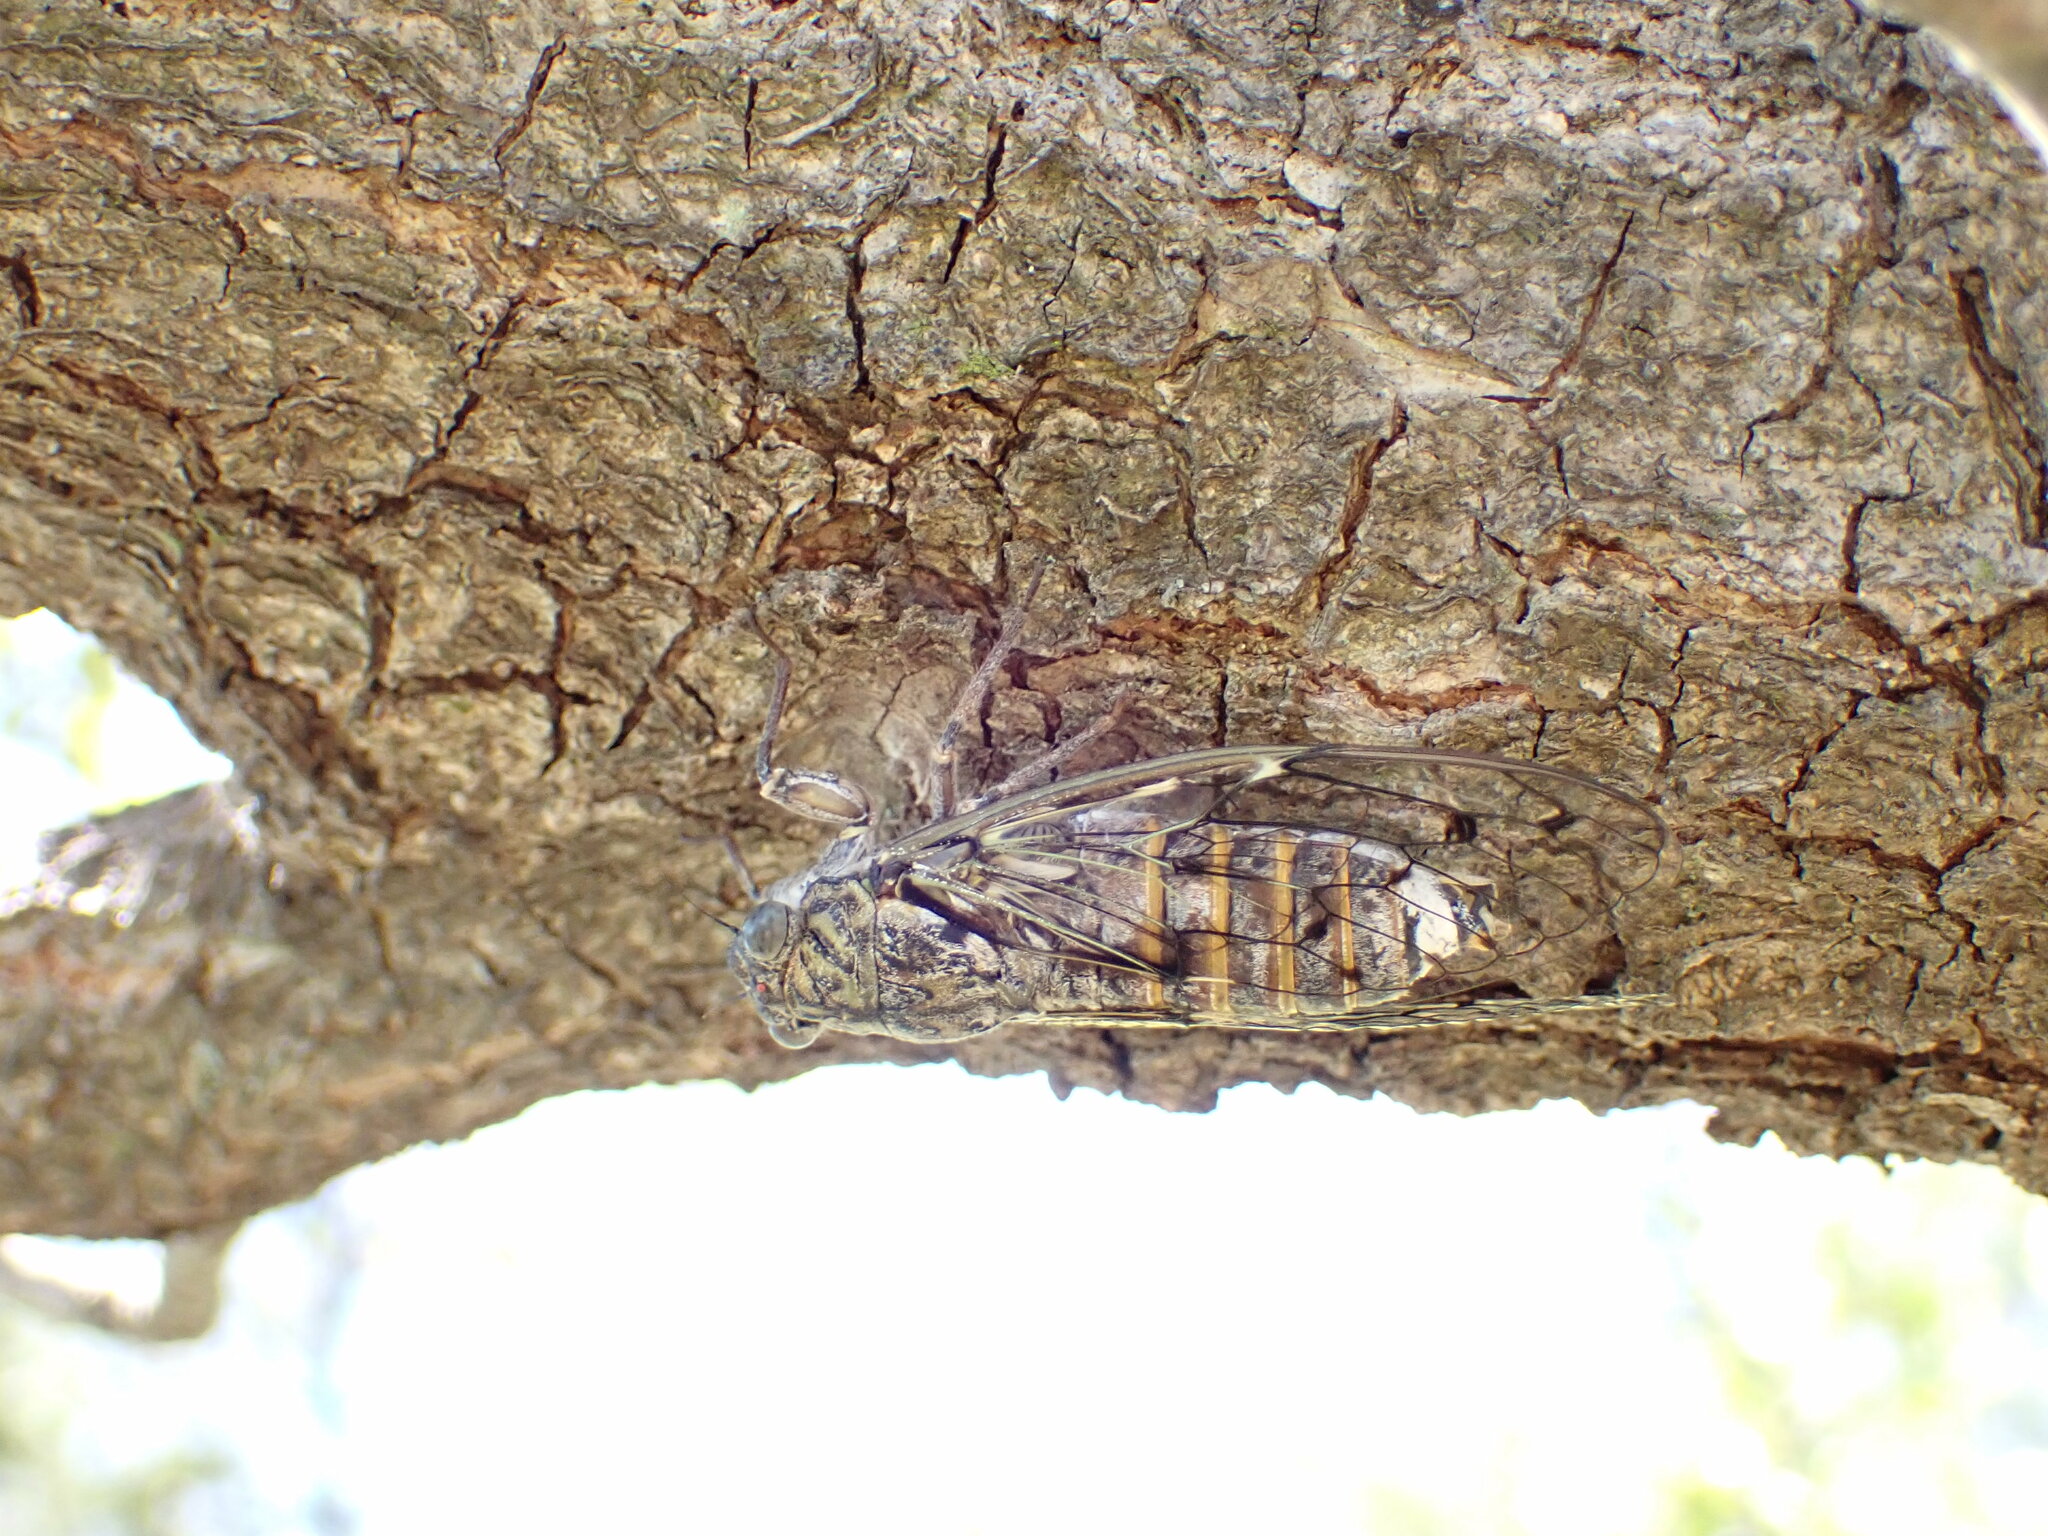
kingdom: Animalia
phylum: Arthropoda
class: Insecta
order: Hemiptera
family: Cicadidae
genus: Cicada
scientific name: Cicada orni
